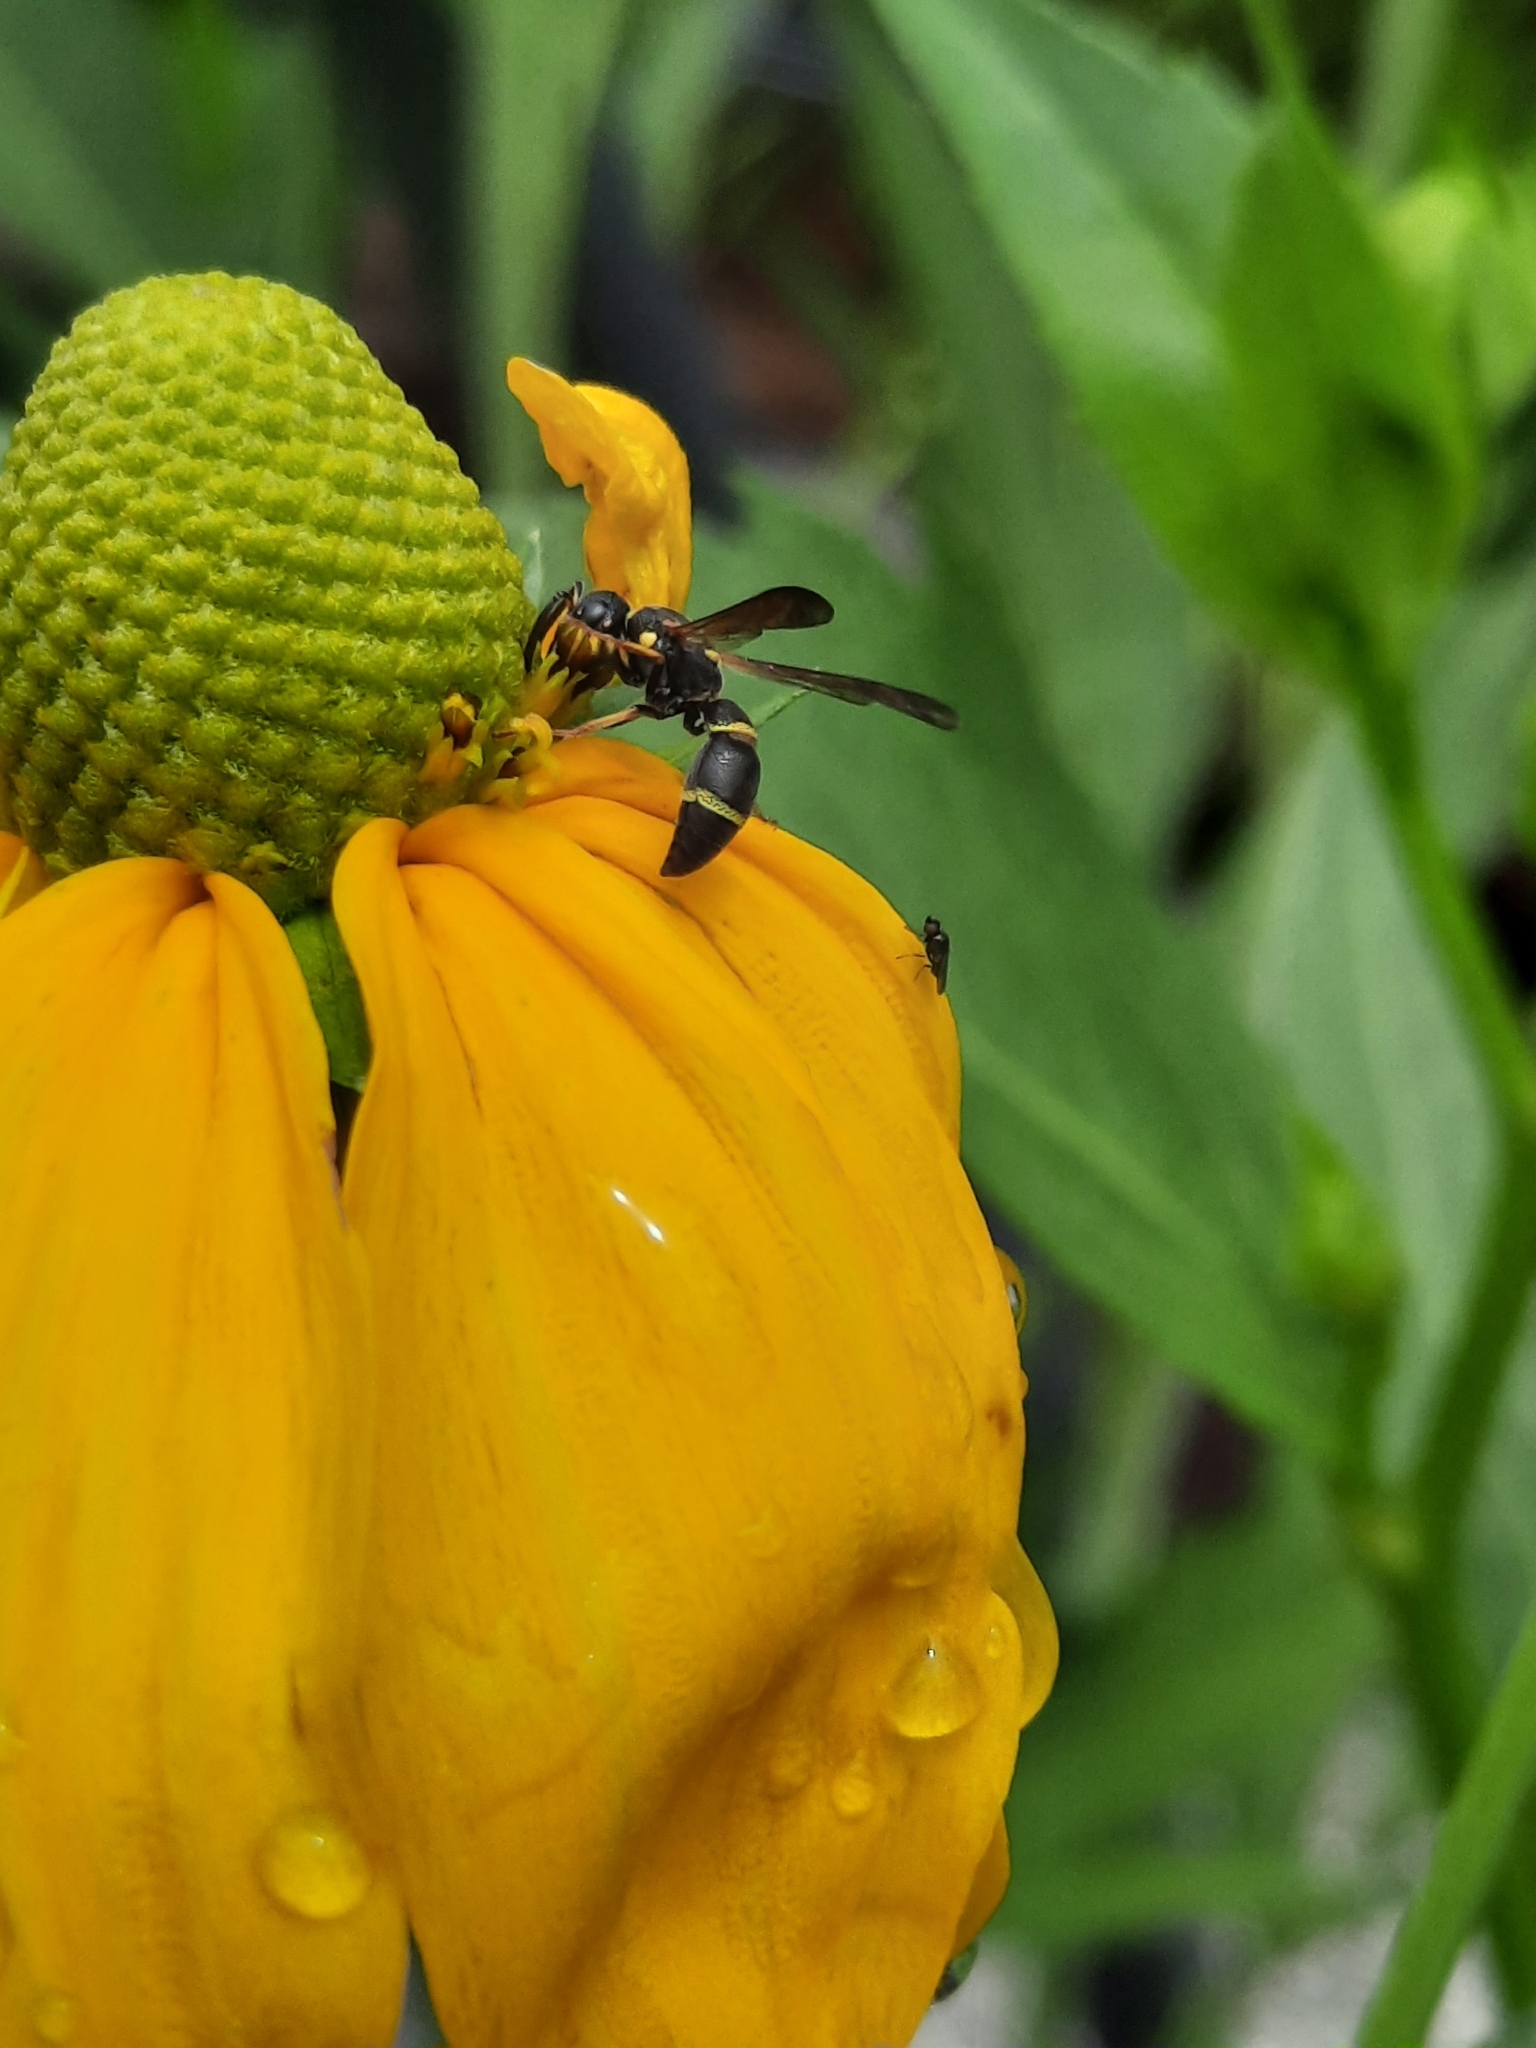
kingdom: Animalia
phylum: Arthropoda
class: Insecta
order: Hymenoptera
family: Eumenidae
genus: Parancistrocerus
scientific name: Parancistrocerus perennis
